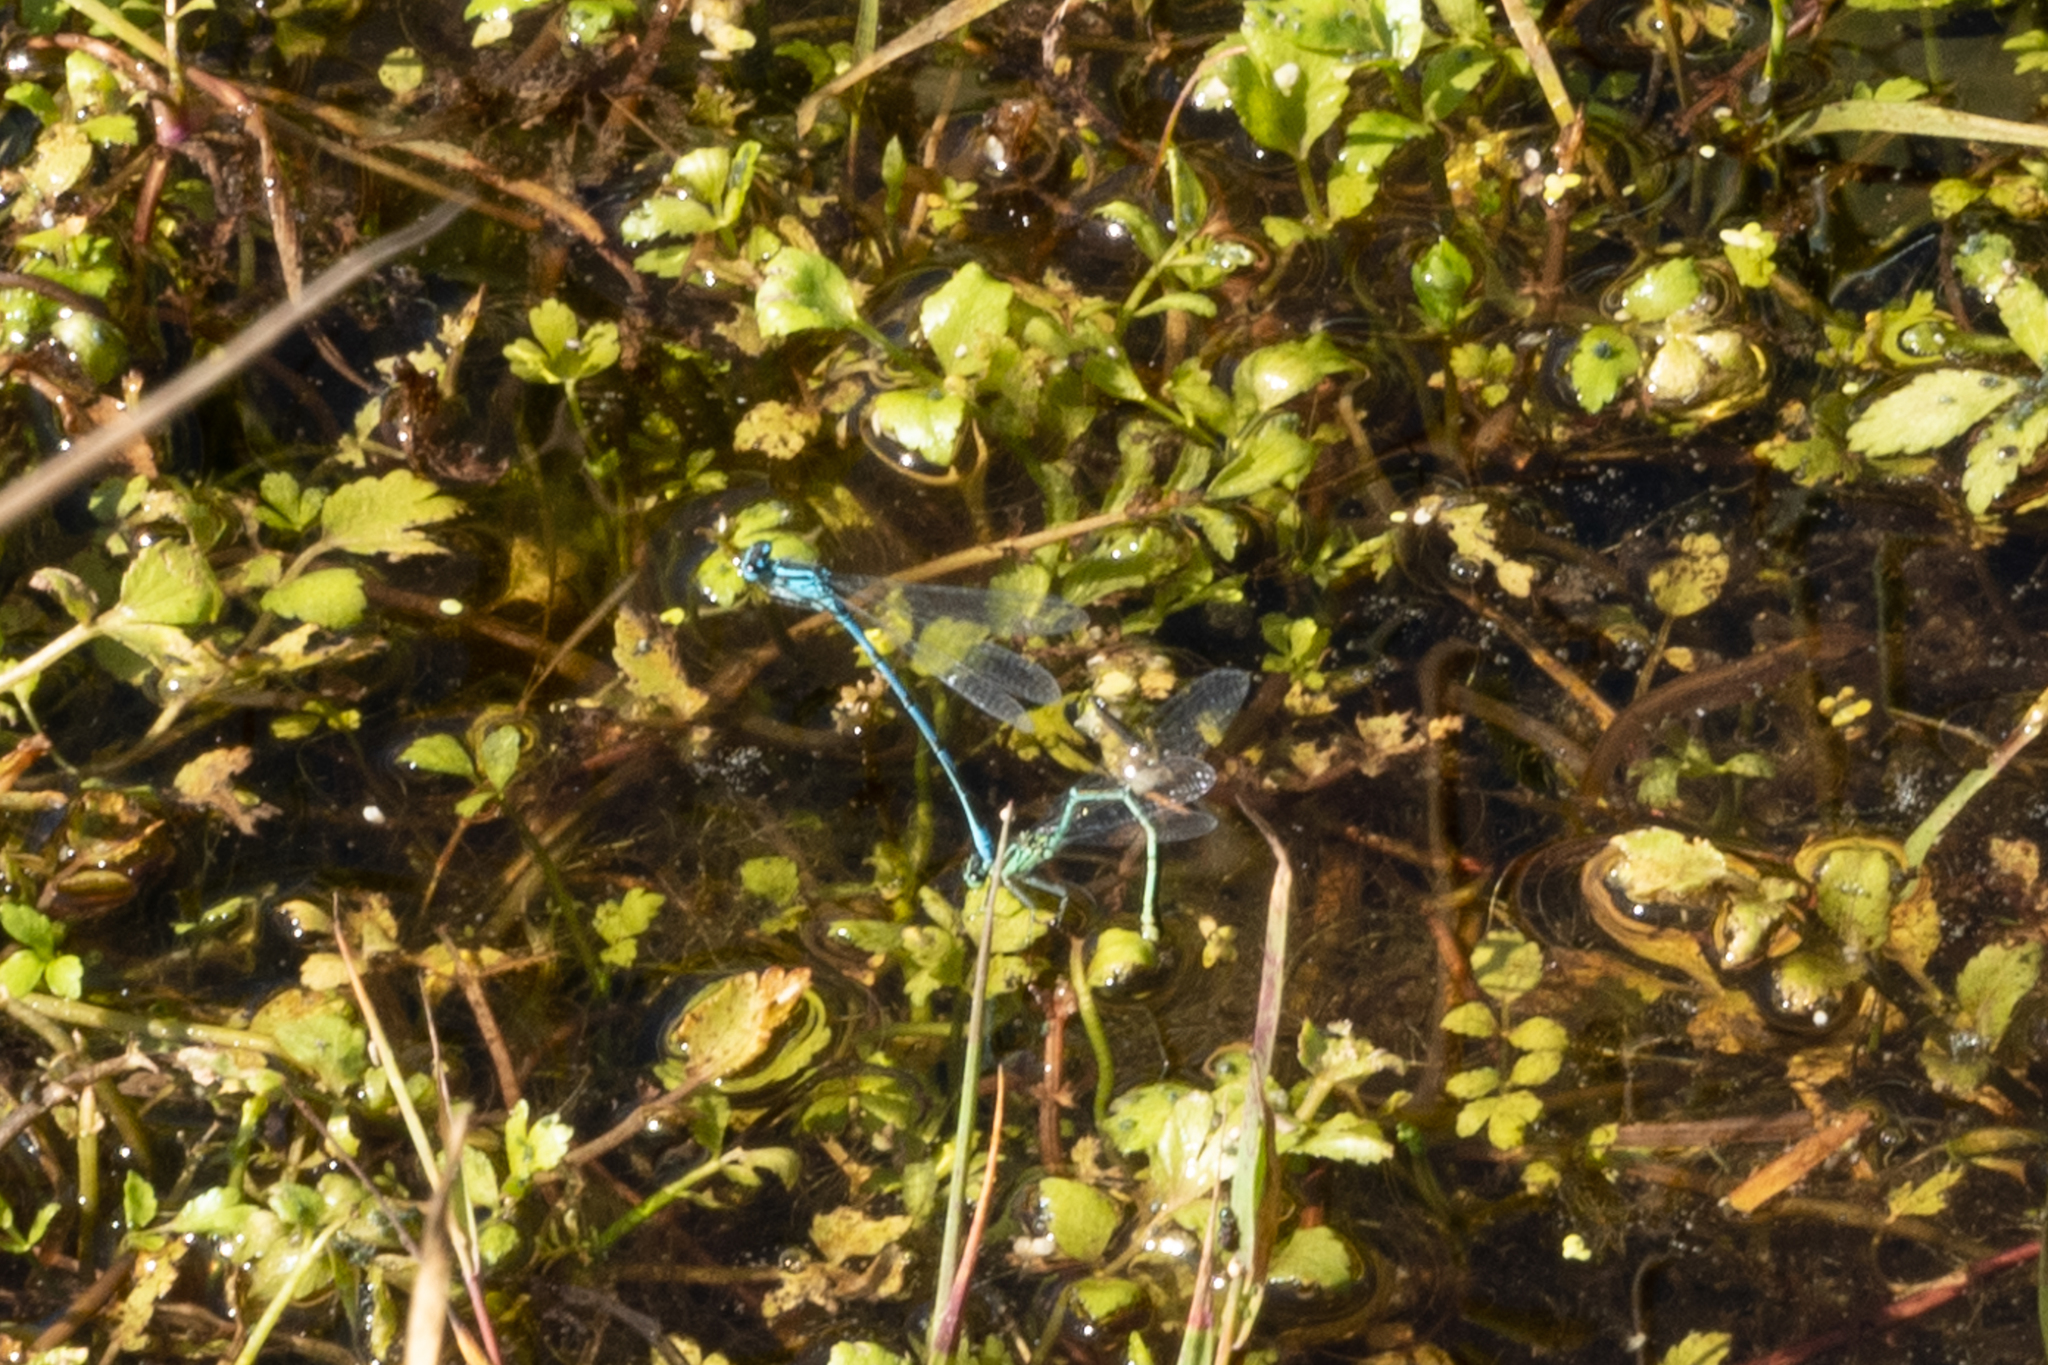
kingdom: Animalia
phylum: Arthropoda
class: Insecta
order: Odonata
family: Coenagrionidae
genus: Coenagrion
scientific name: Coenagrion puella
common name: Azure damselfly
